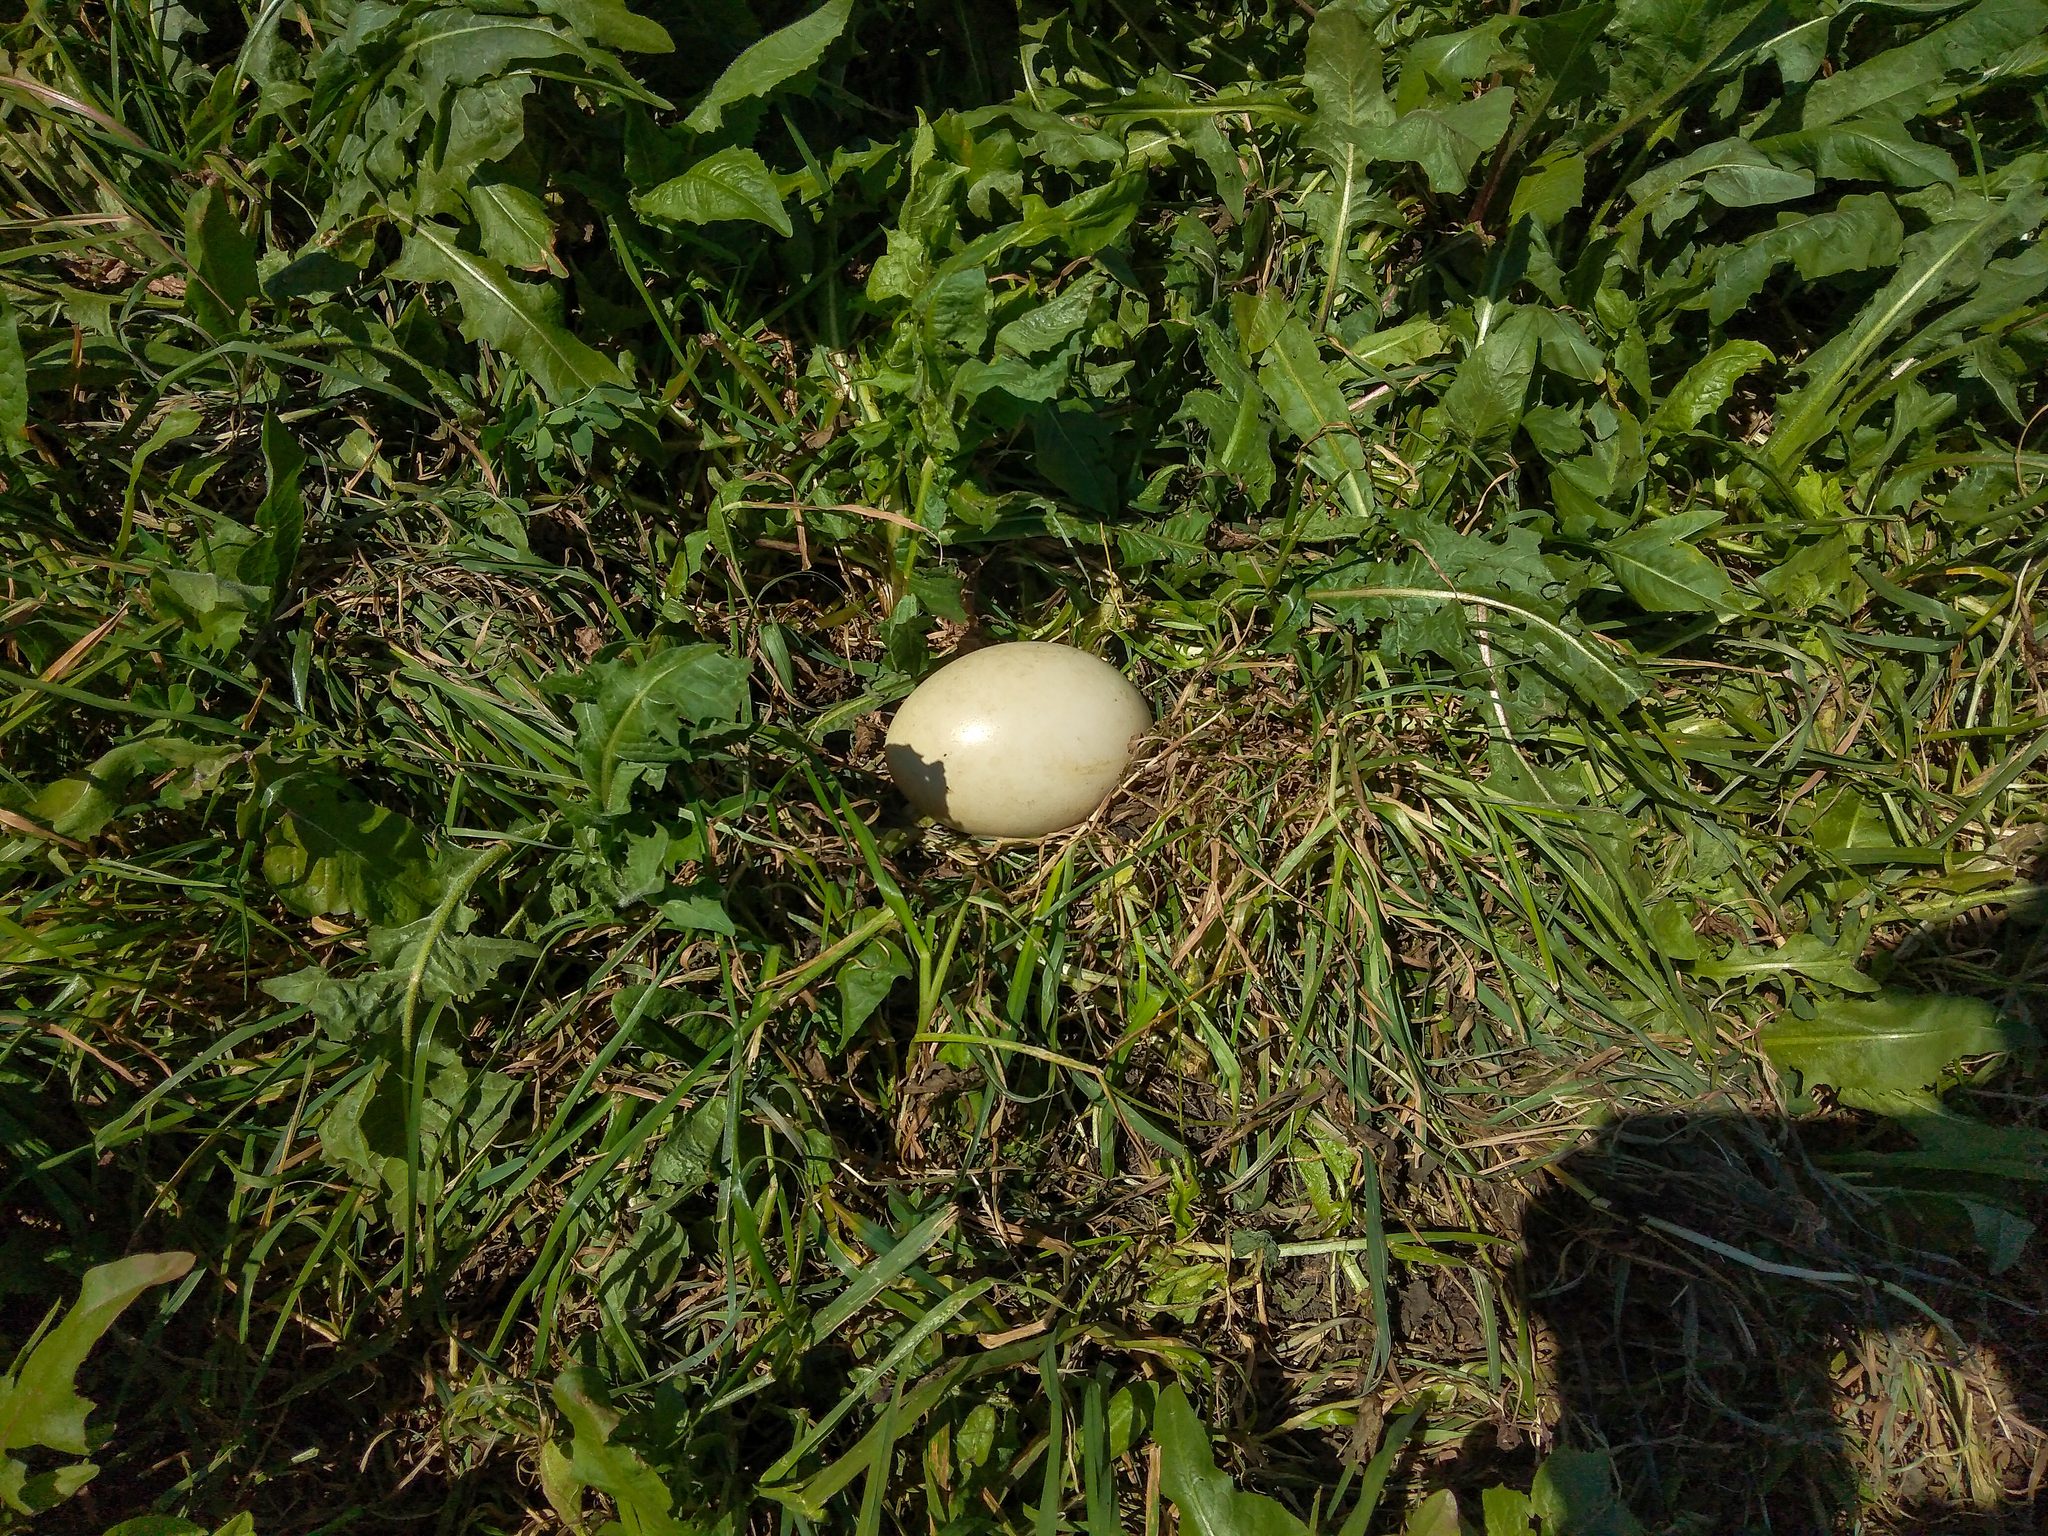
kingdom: Animalia
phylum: Chordata
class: Aves
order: Rheiformes
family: Rheidae
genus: Rhea
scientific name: Rhea americana
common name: Greater rhea
